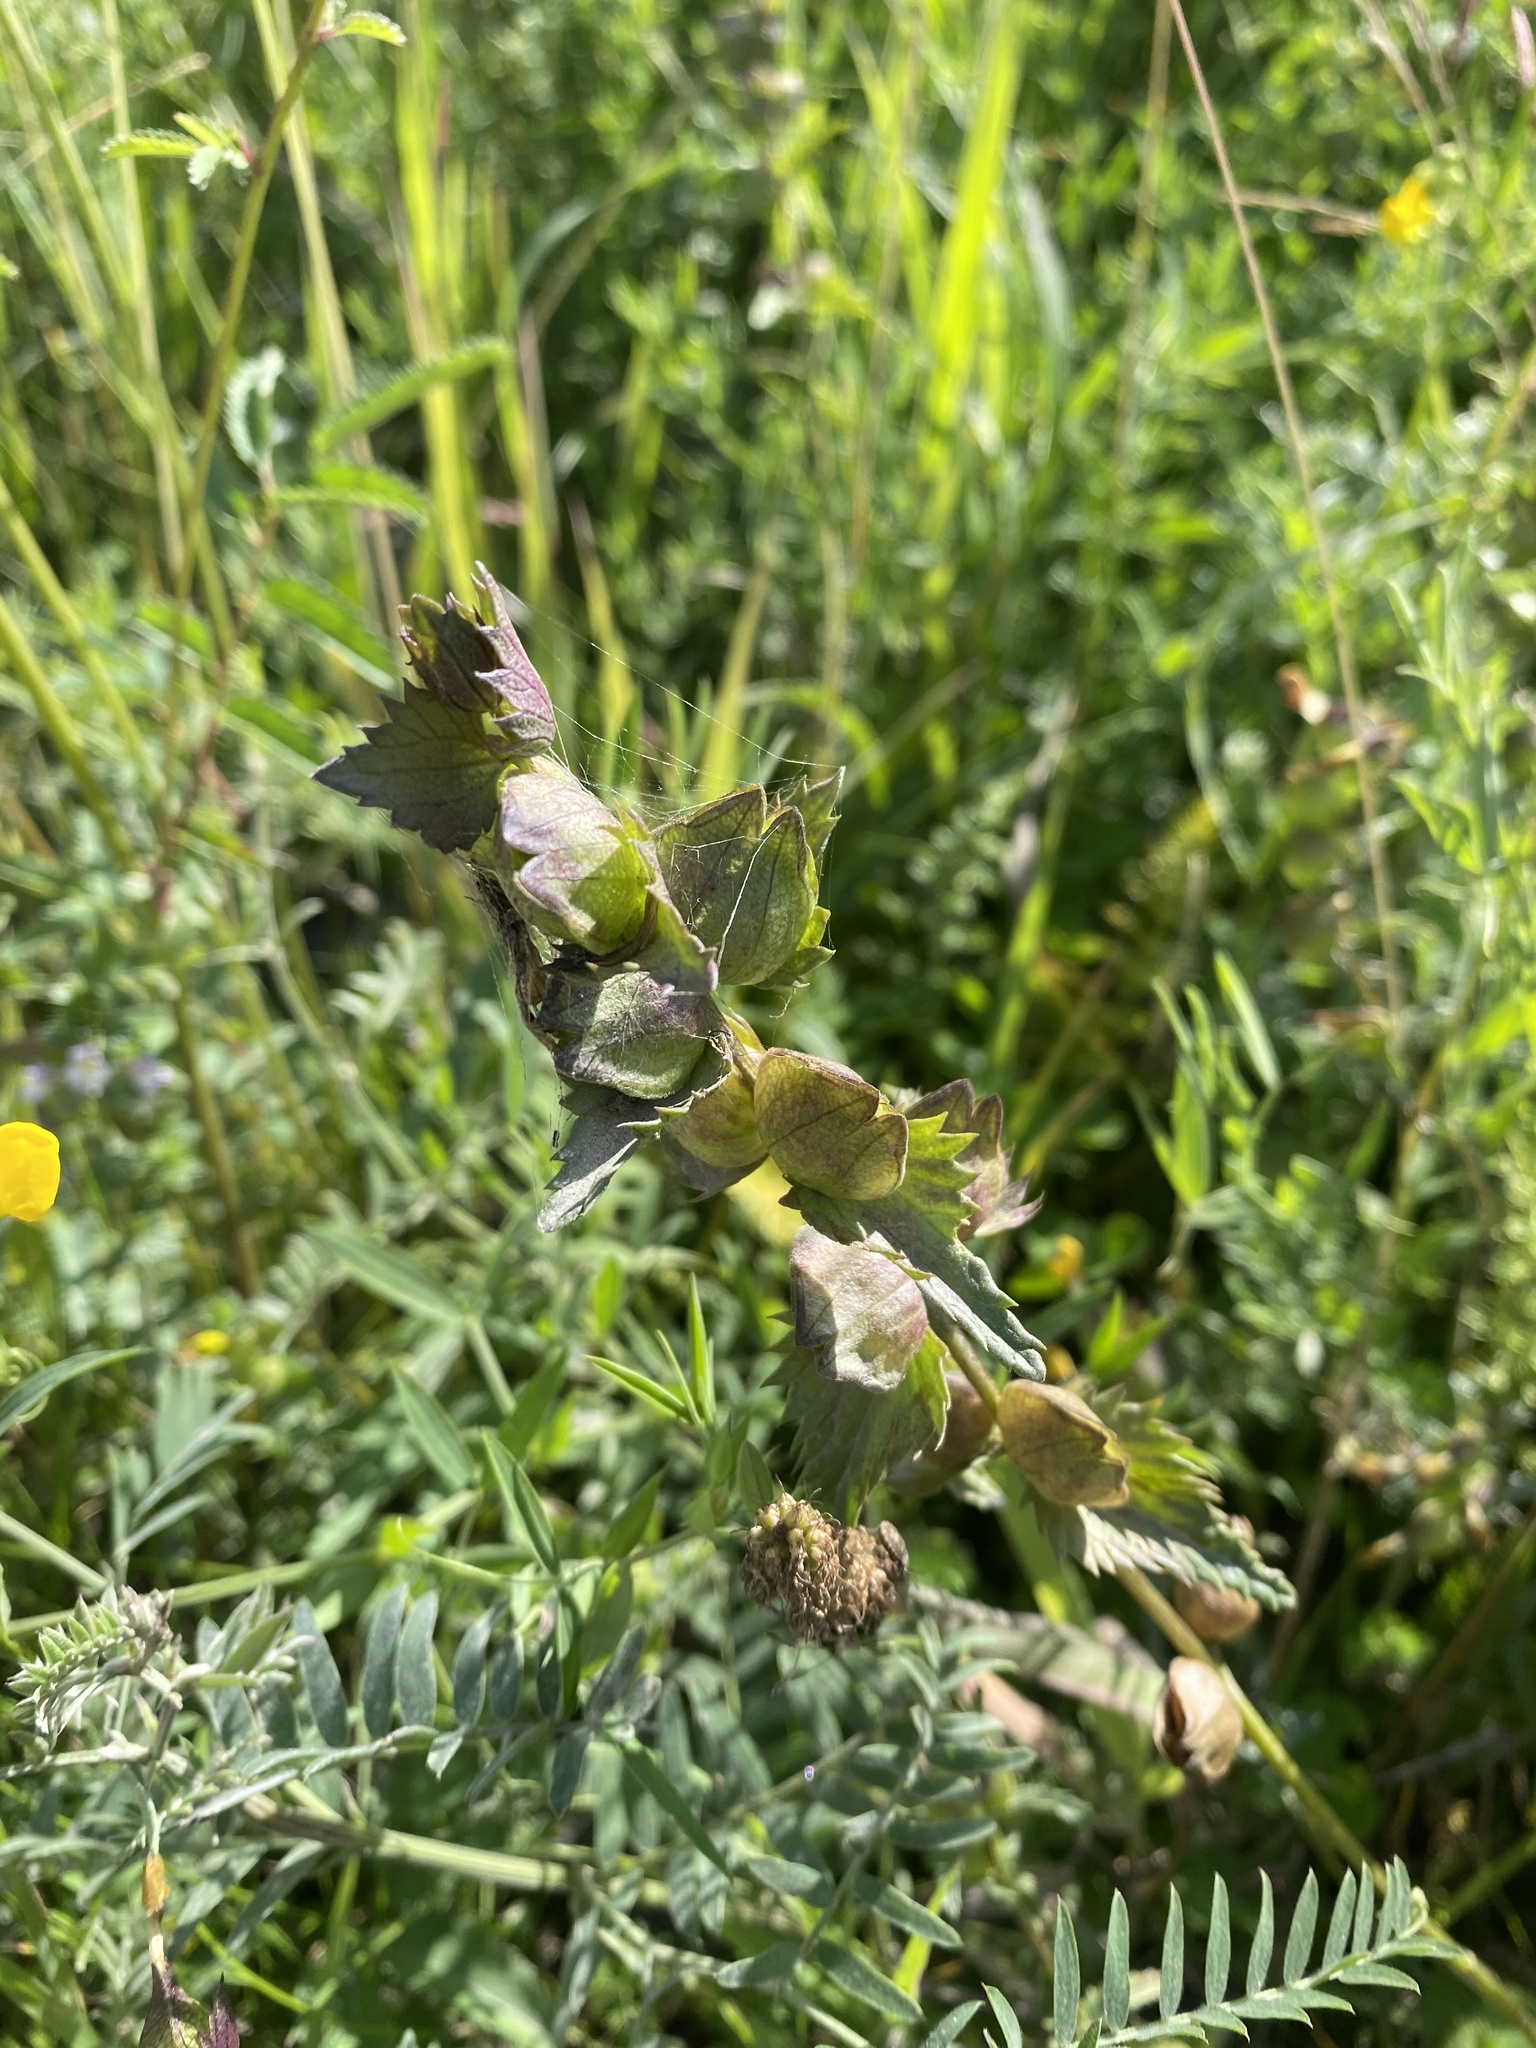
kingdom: Plantae
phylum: Tracheophyta
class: Magnoliopsida
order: Lamiales
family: Orobanchaceae
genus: Rhinanthus
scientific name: Rhinanthus serotinus
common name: Late-flowering yellow rattle
